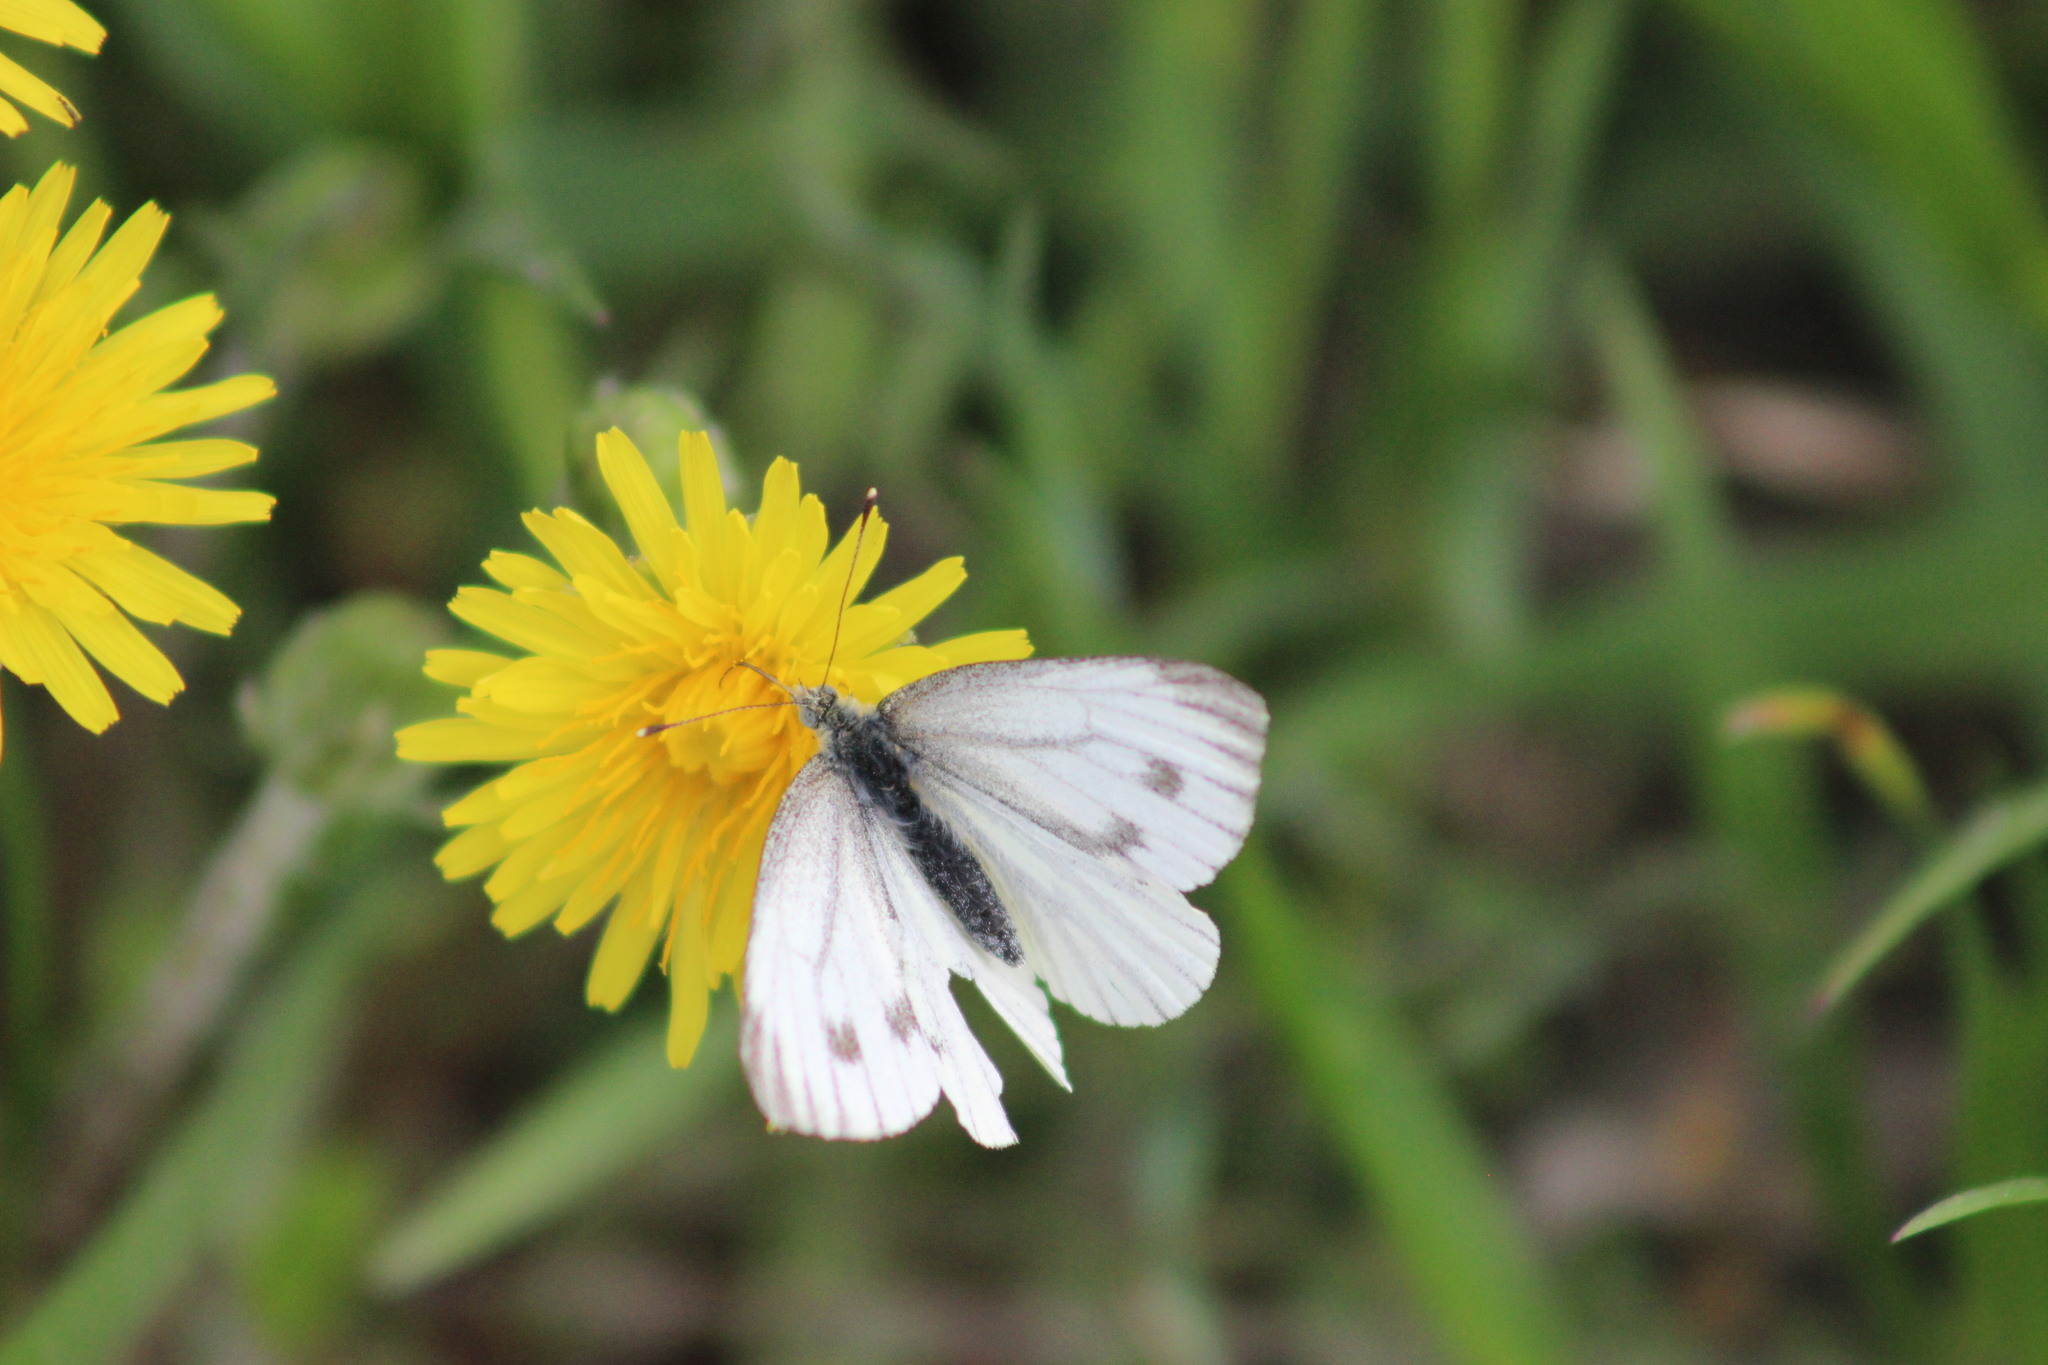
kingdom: Animalia
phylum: Arthropoda
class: Insecta
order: Lepidoptera
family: Pieridae
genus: Pieris
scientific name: Pieris napi
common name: Green-veined white
